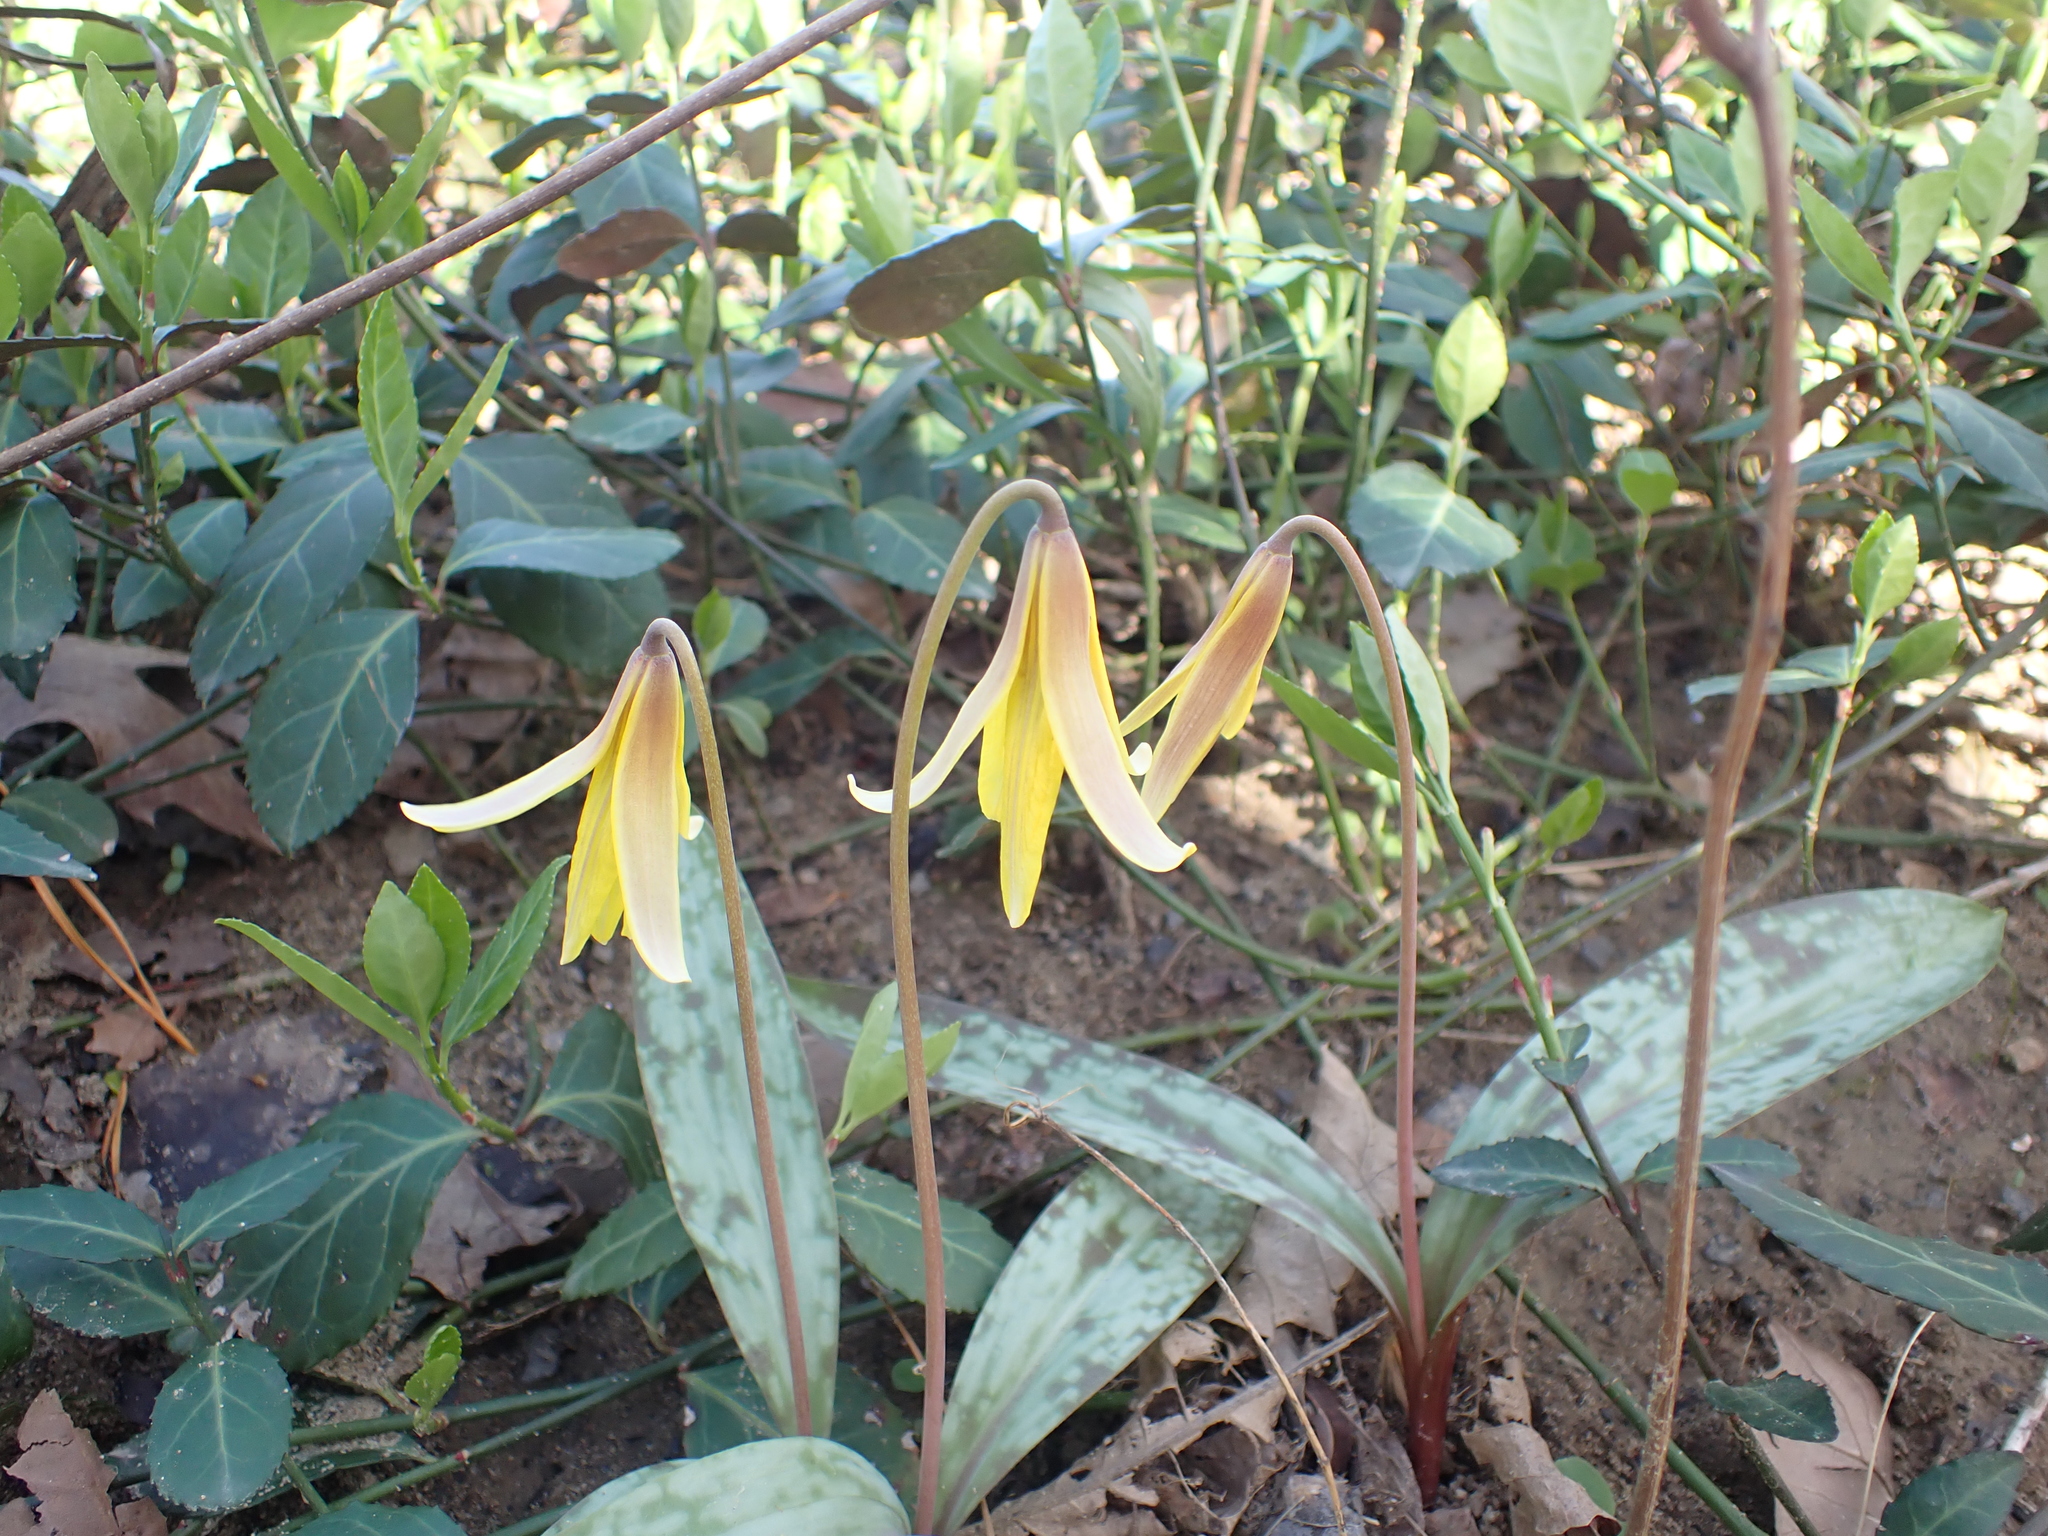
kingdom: Plantae
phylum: Tracheophyta
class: Liliopsida
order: Liliales
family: Liliaceae
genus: Erythronium
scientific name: Erythronium americanum
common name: Yellow adder's-tongue
